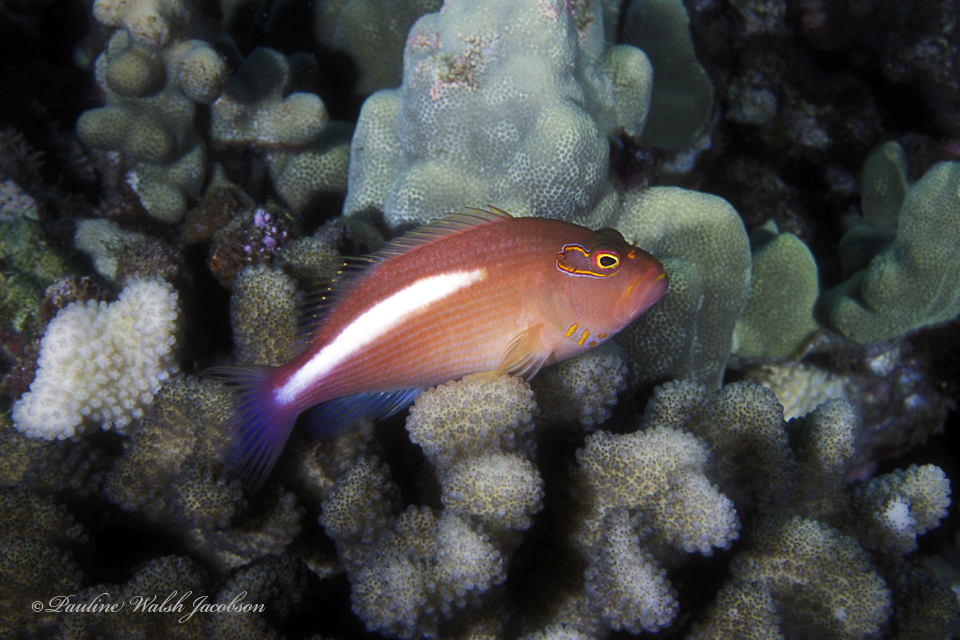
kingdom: Animalia
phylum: Chordata
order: Perciformes
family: Cirrhitidae
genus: Paracirrhites
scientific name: Paracirrhites arcatus
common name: Arc-eye hawkfish
